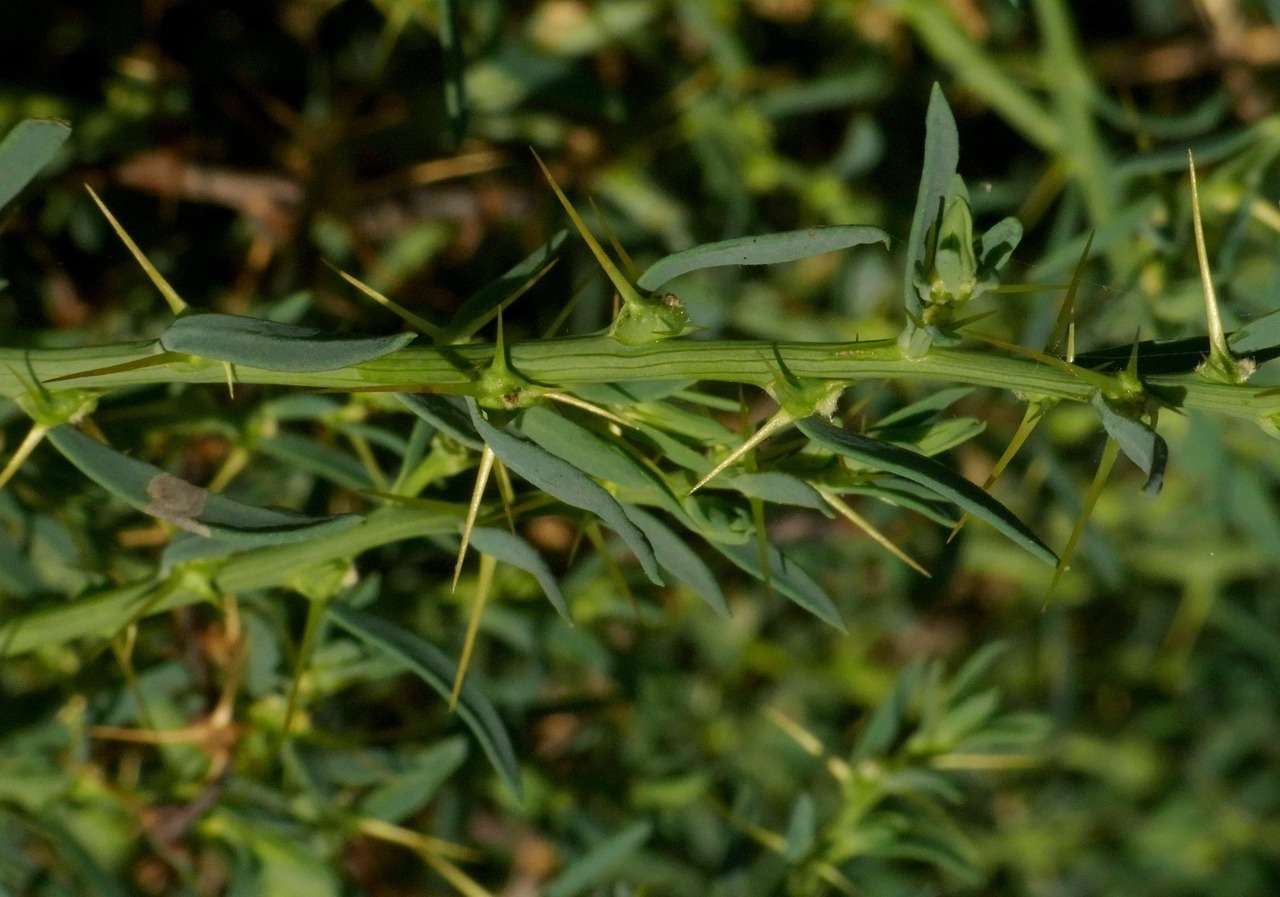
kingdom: Plantae
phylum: Tracheophyta
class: Magnoliopsida
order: Caryophyllales
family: Amaranthaceae
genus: Sclerolaena
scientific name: Sclerolaena muricata
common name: Roly-poly
